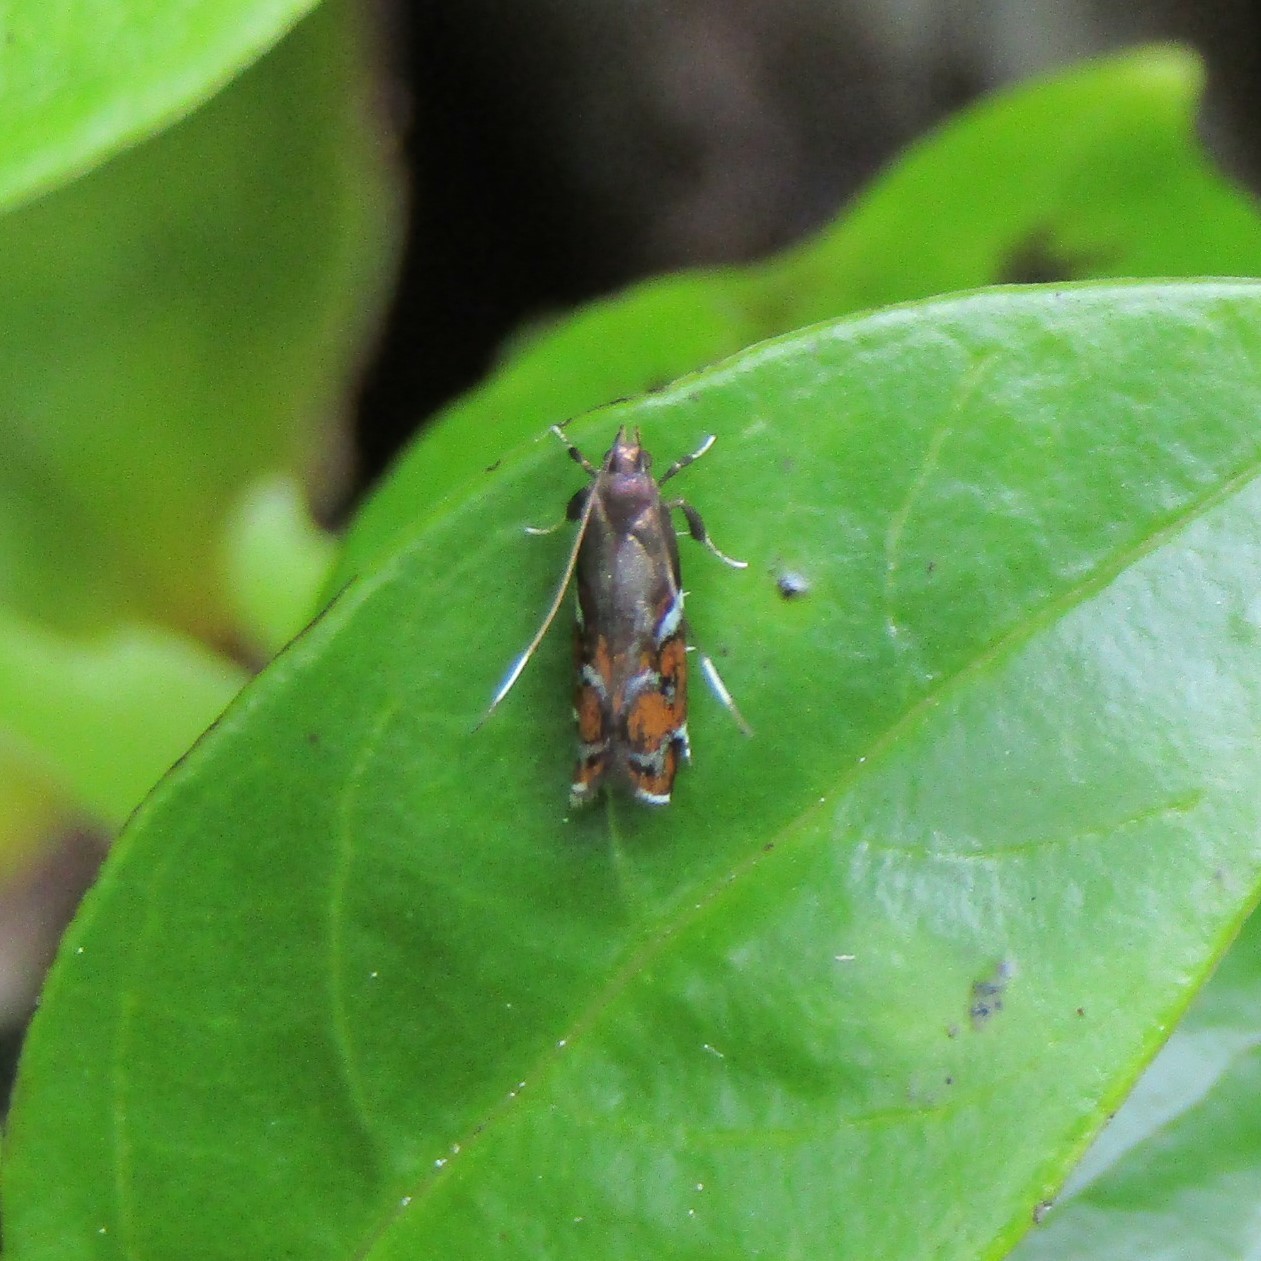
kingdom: Animalia
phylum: Arthropoda
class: Insecta
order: Lepidoptera
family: Depressariidae
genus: Compsistis
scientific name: Compsistis bifaciella
